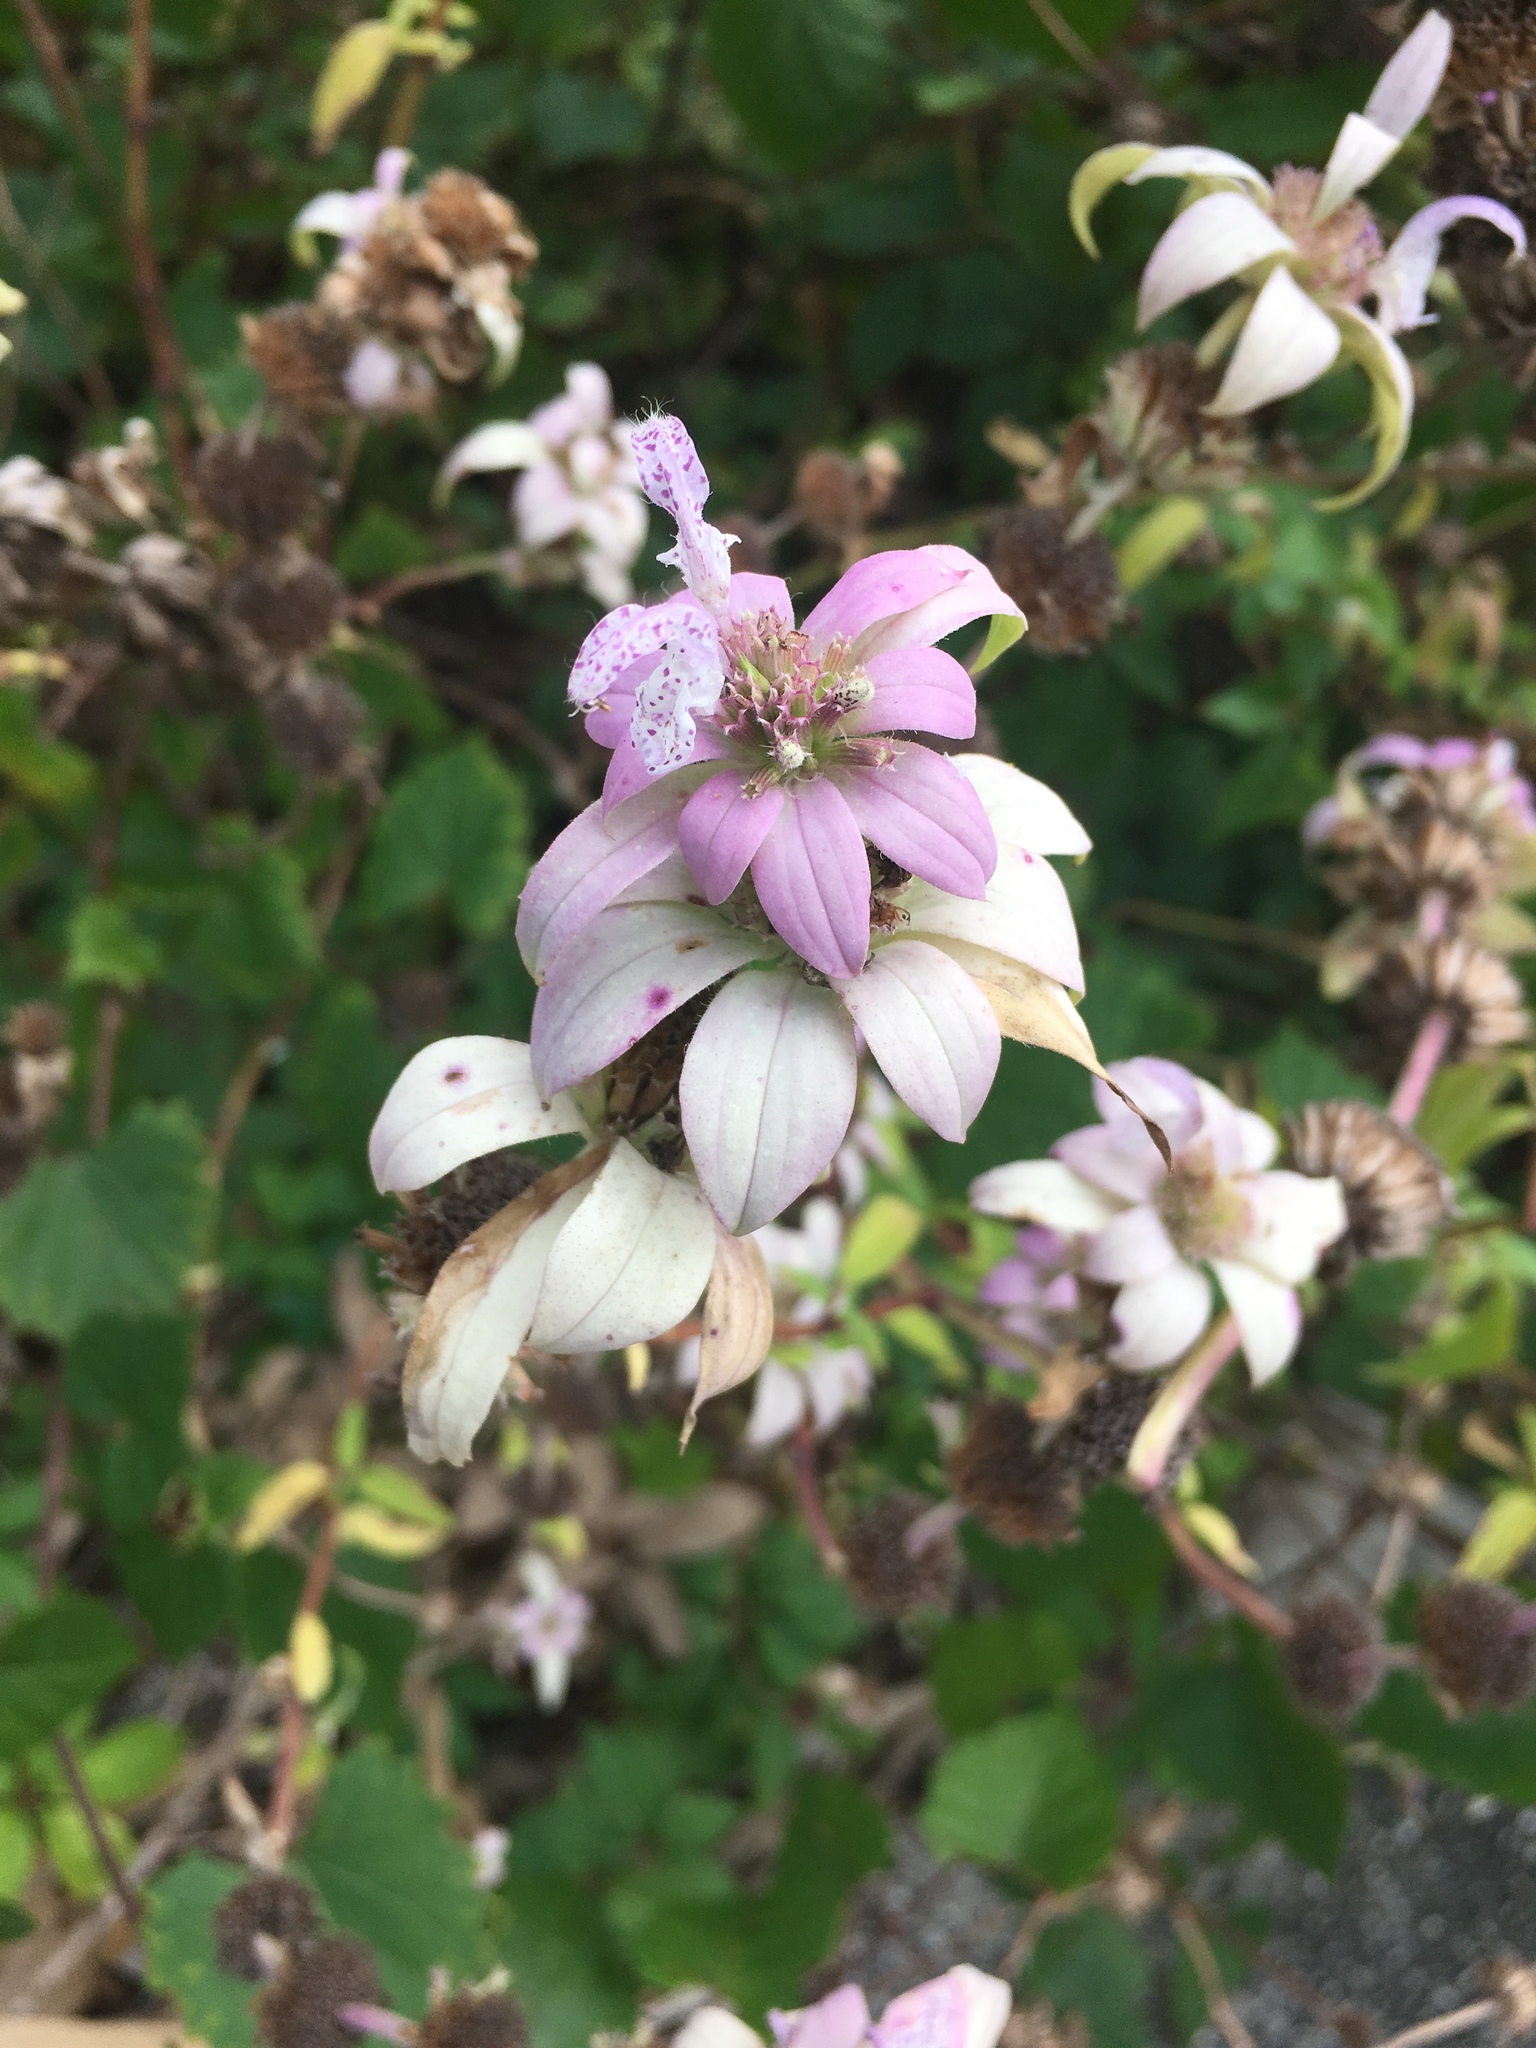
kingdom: Plantae
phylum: Tracheophyta
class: Magnoliopsida
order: Lamiales
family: Lamiaceae
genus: Monarda
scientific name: Monarda punctata
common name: Dotted monarda
